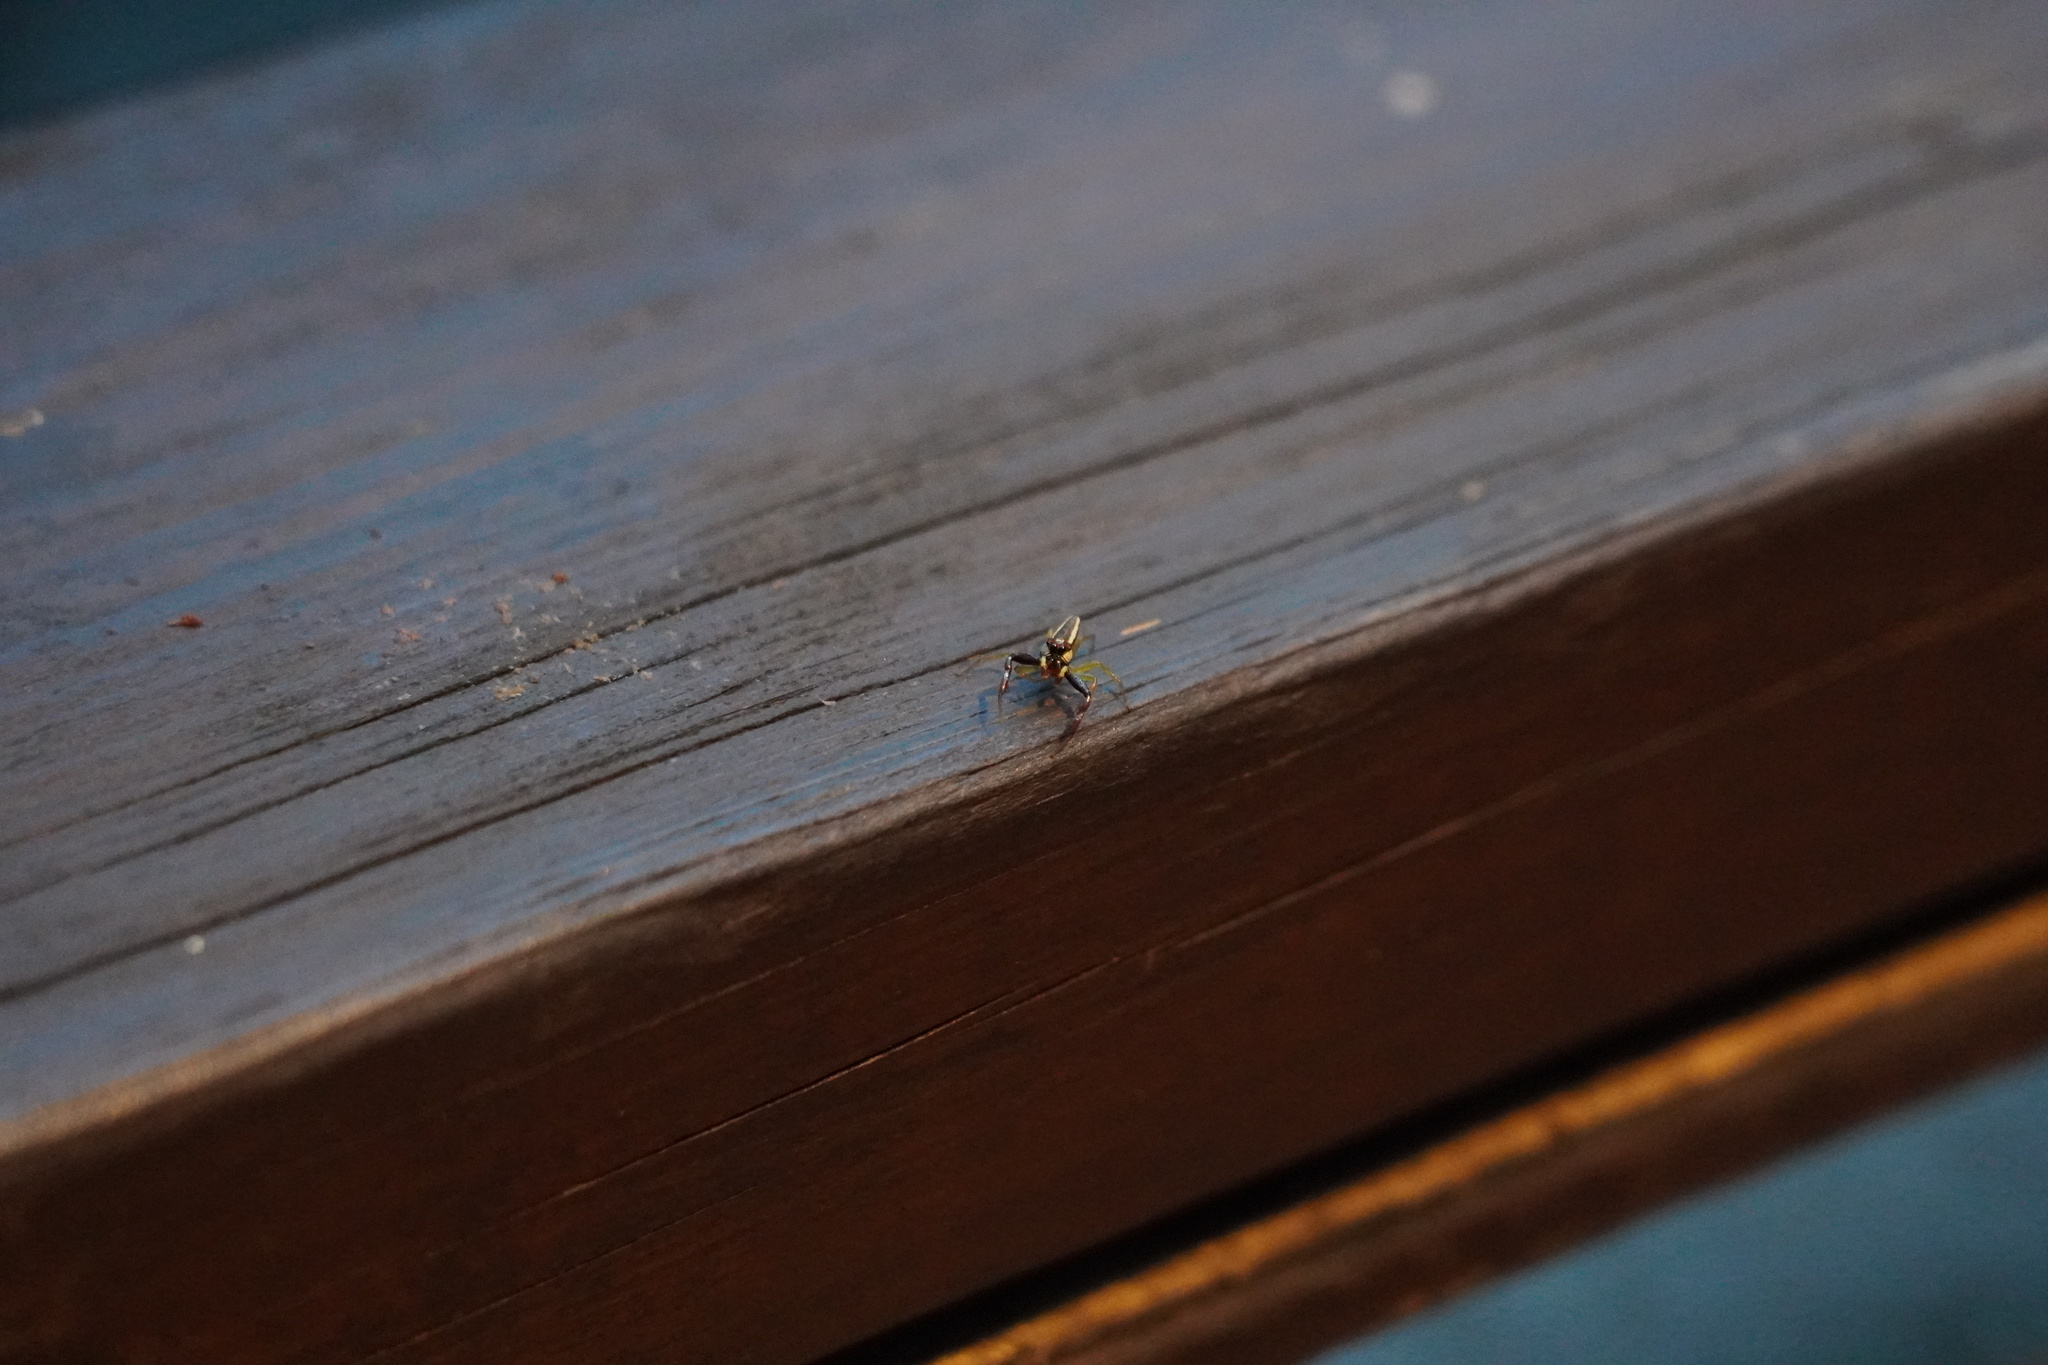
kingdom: Animalia
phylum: Arthropoda
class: Arachnida
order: Araneae
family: Salticidae
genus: Epocilla
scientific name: Epocilla calcarata
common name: Jumping spider
